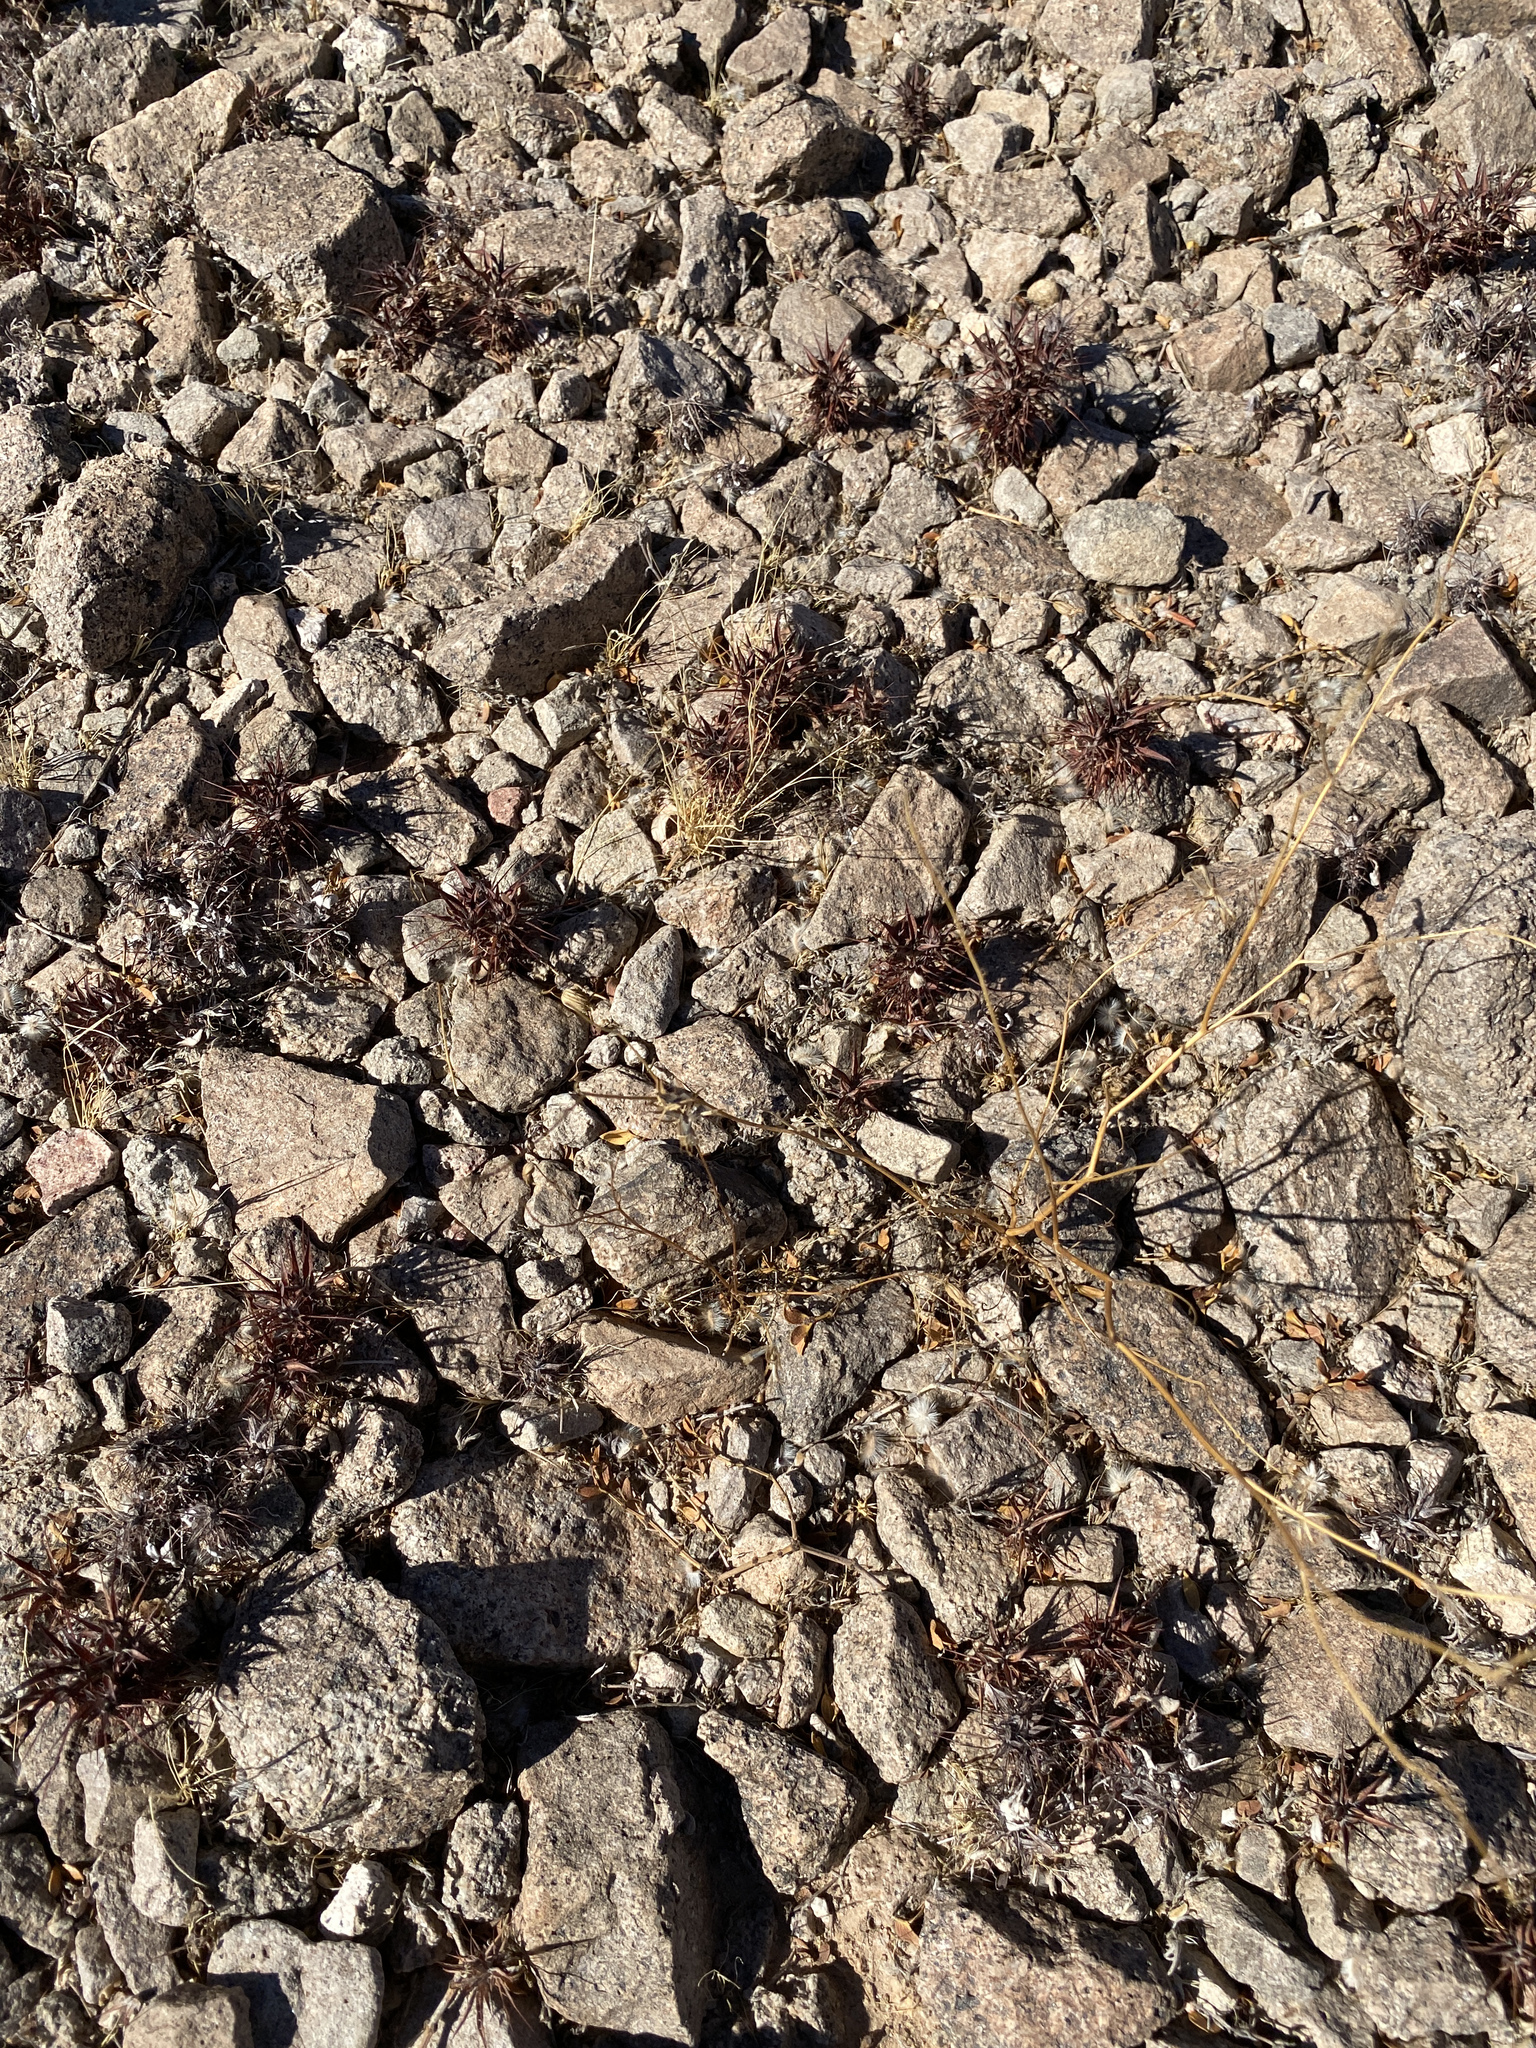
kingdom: Plantae
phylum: Tracheophyta
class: Magnoliopsida
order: Caryophyllales
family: Polygonaceae
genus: Chorizanthe
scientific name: Chorizanthe rigida
